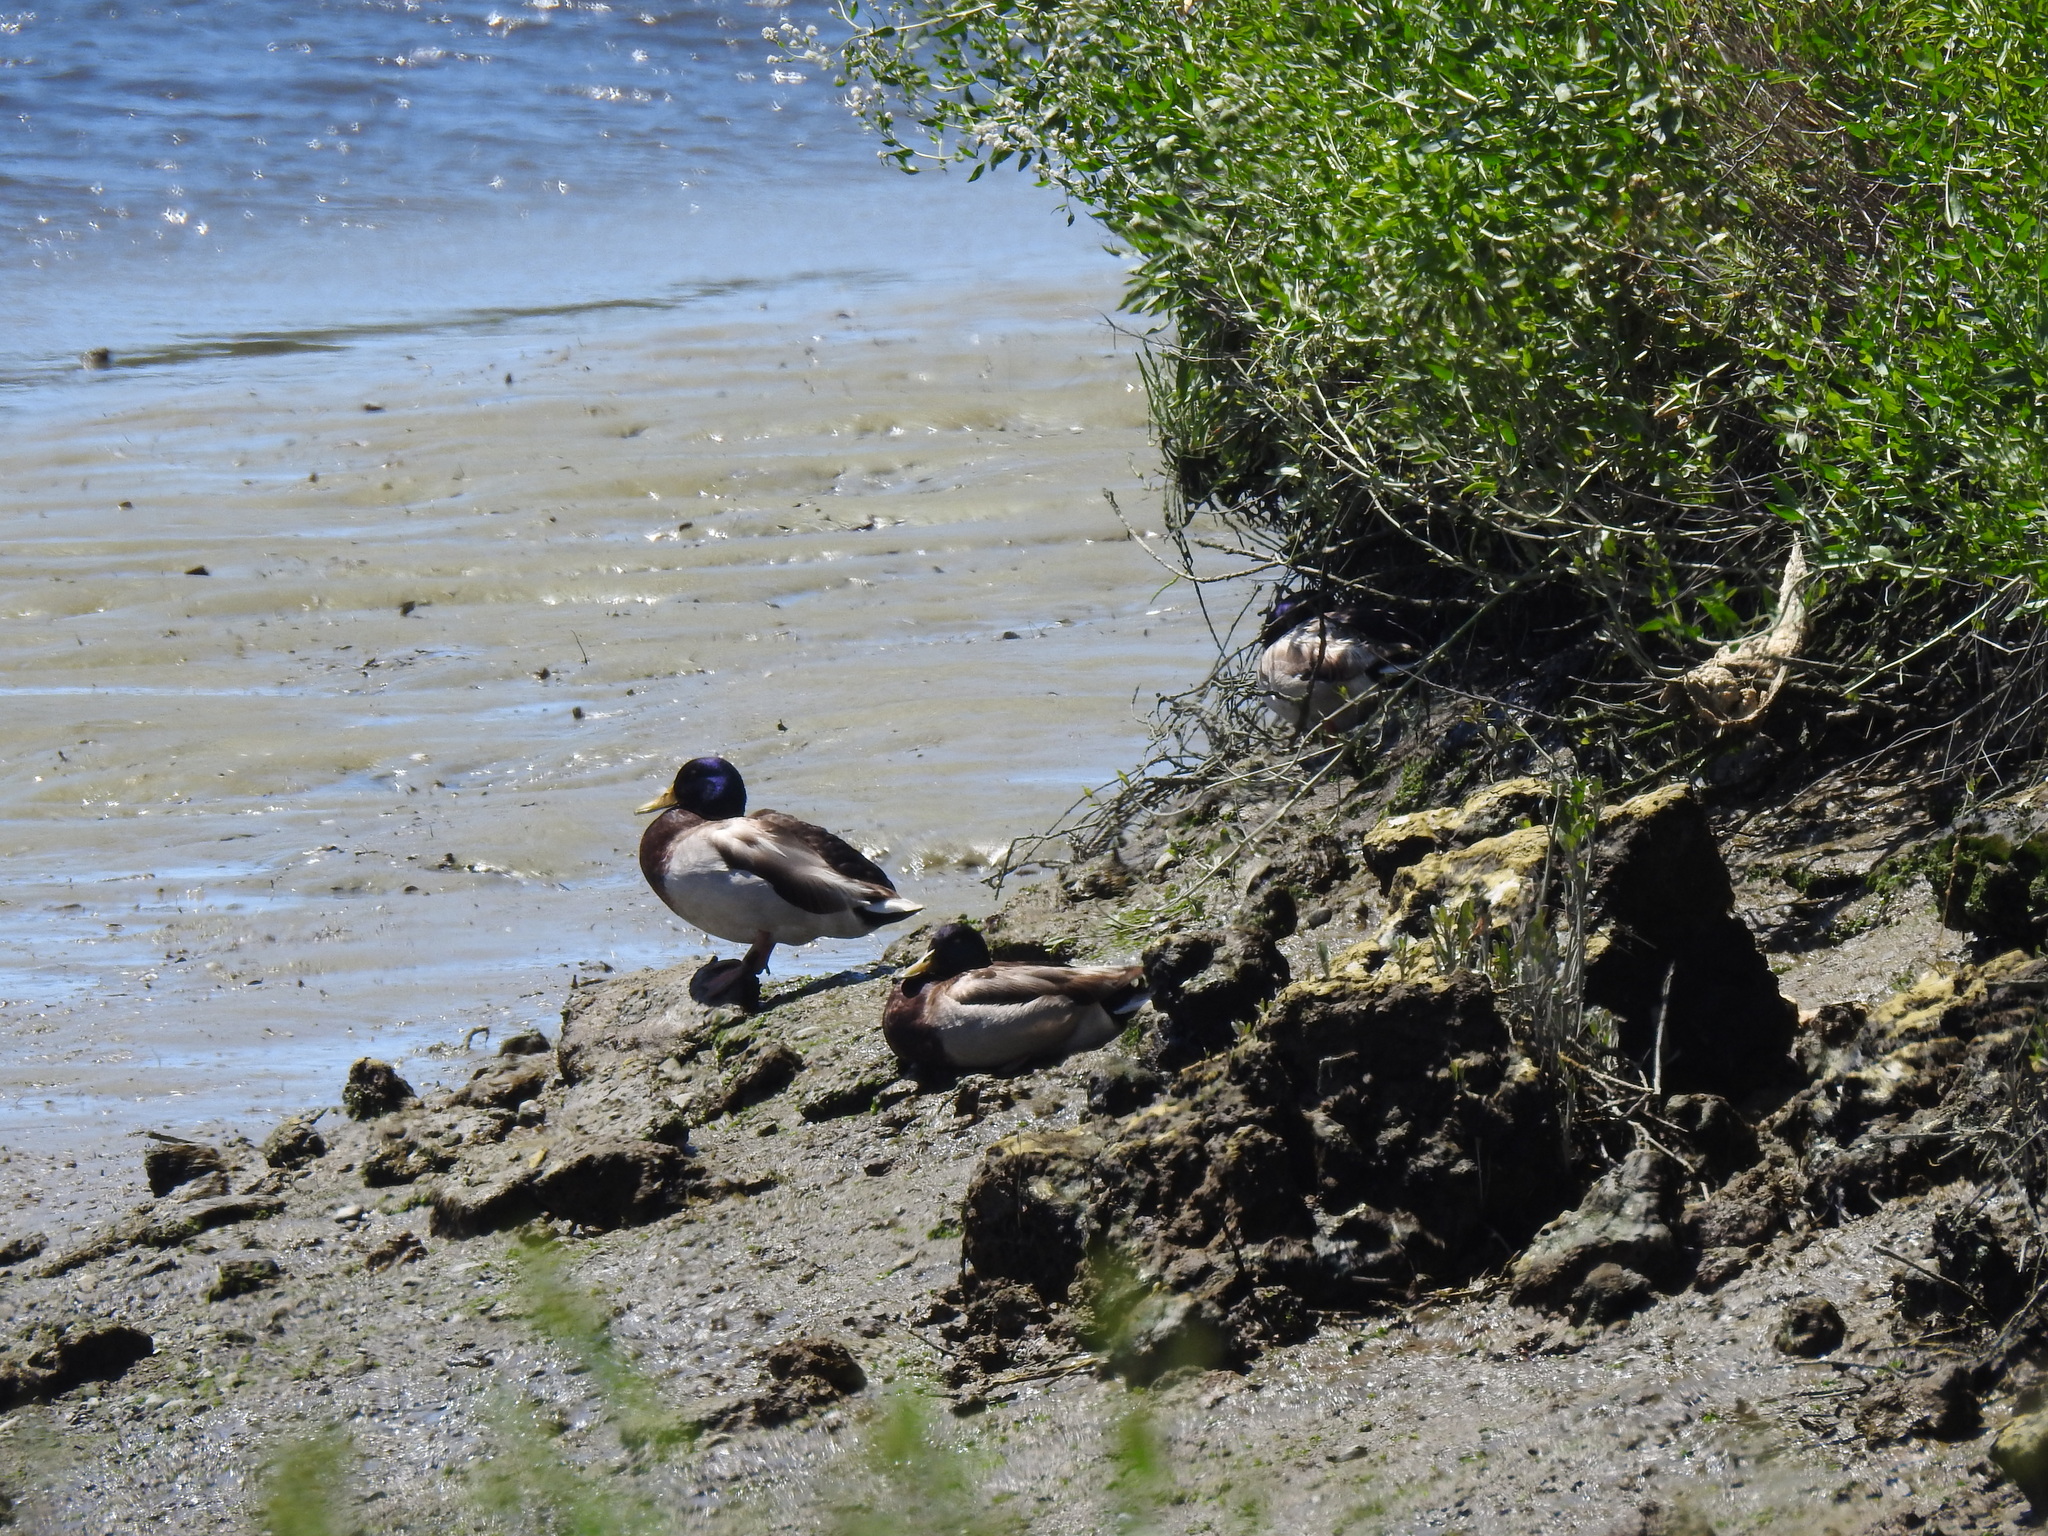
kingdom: Animalia
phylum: Chordata
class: Aves
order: Anseriformes
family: Anatidae
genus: Anas
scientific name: Anas platyrhynchos
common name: Mallard
